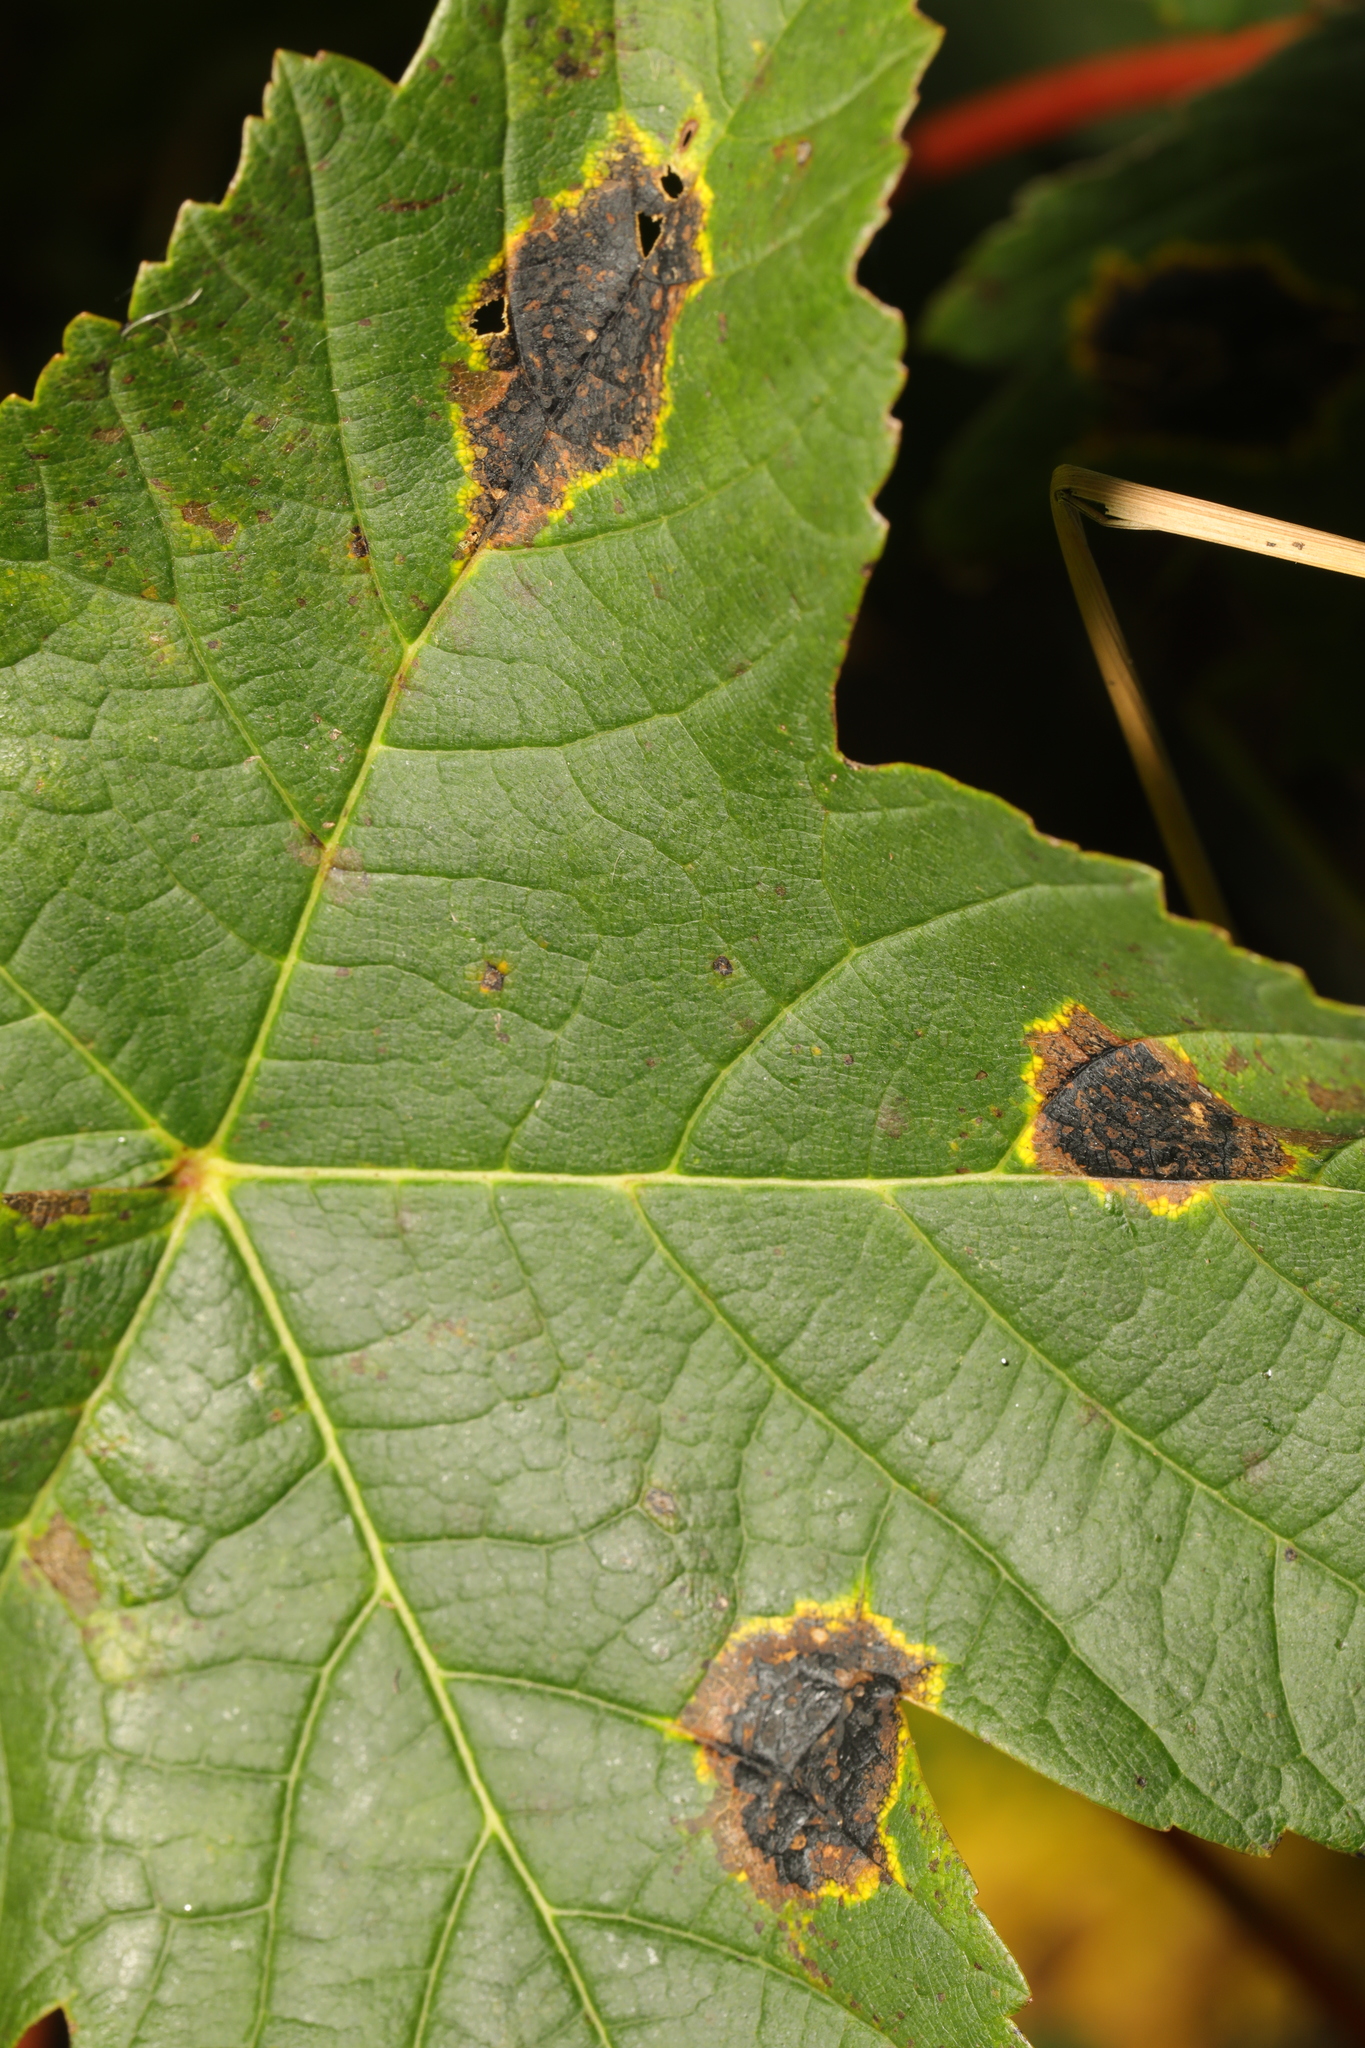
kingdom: Fungi
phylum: Ascomycota
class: Leotiomycetes
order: Rhytismatales
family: Rhytismataceae
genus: Rhytisma
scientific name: Rhytisma acerinum
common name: European tar spot
